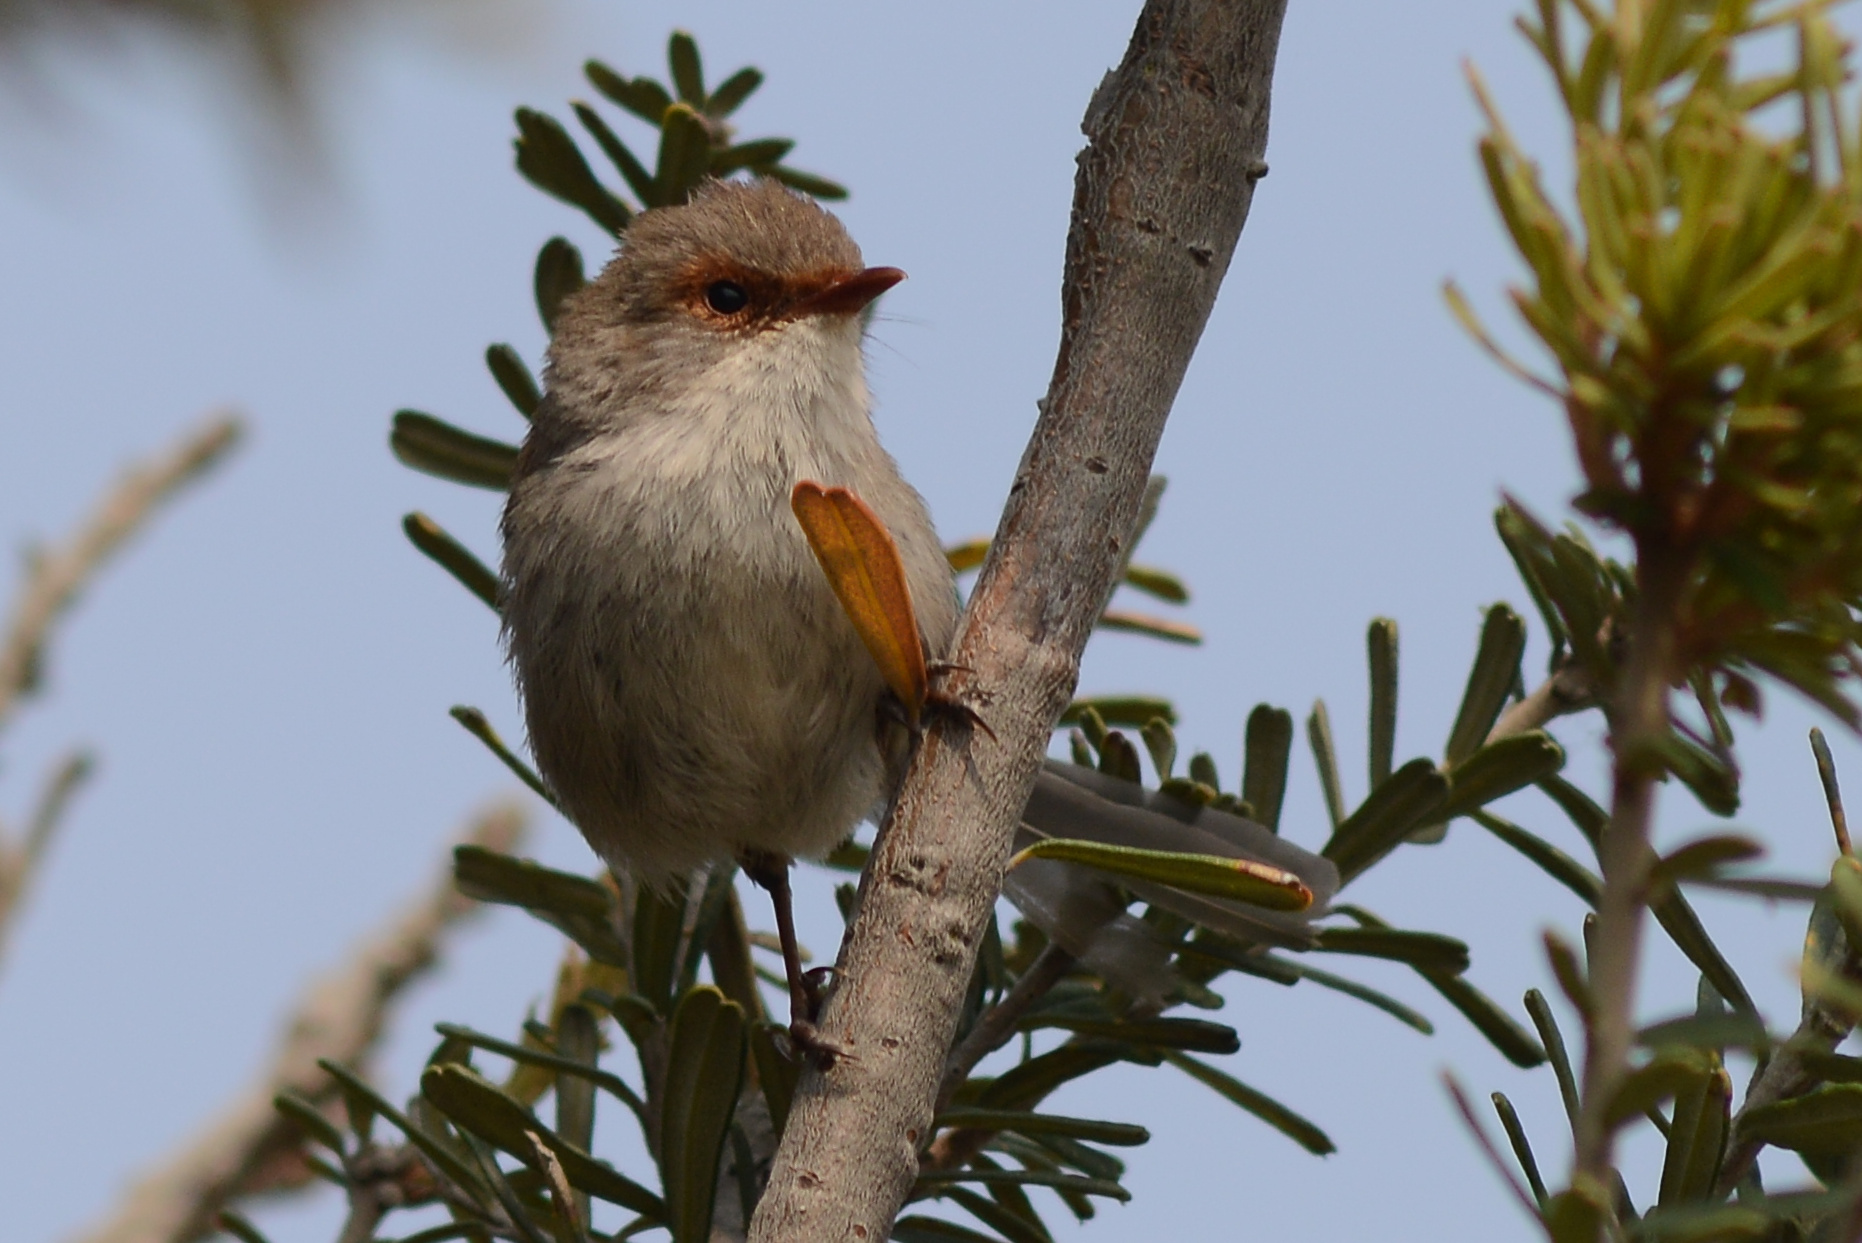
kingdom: Animalia
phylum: Chordata
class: Aves
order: Passeriformes
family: Maluridae
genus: Malurus
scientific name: Malurus cyaneus
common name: Superb fairywren
